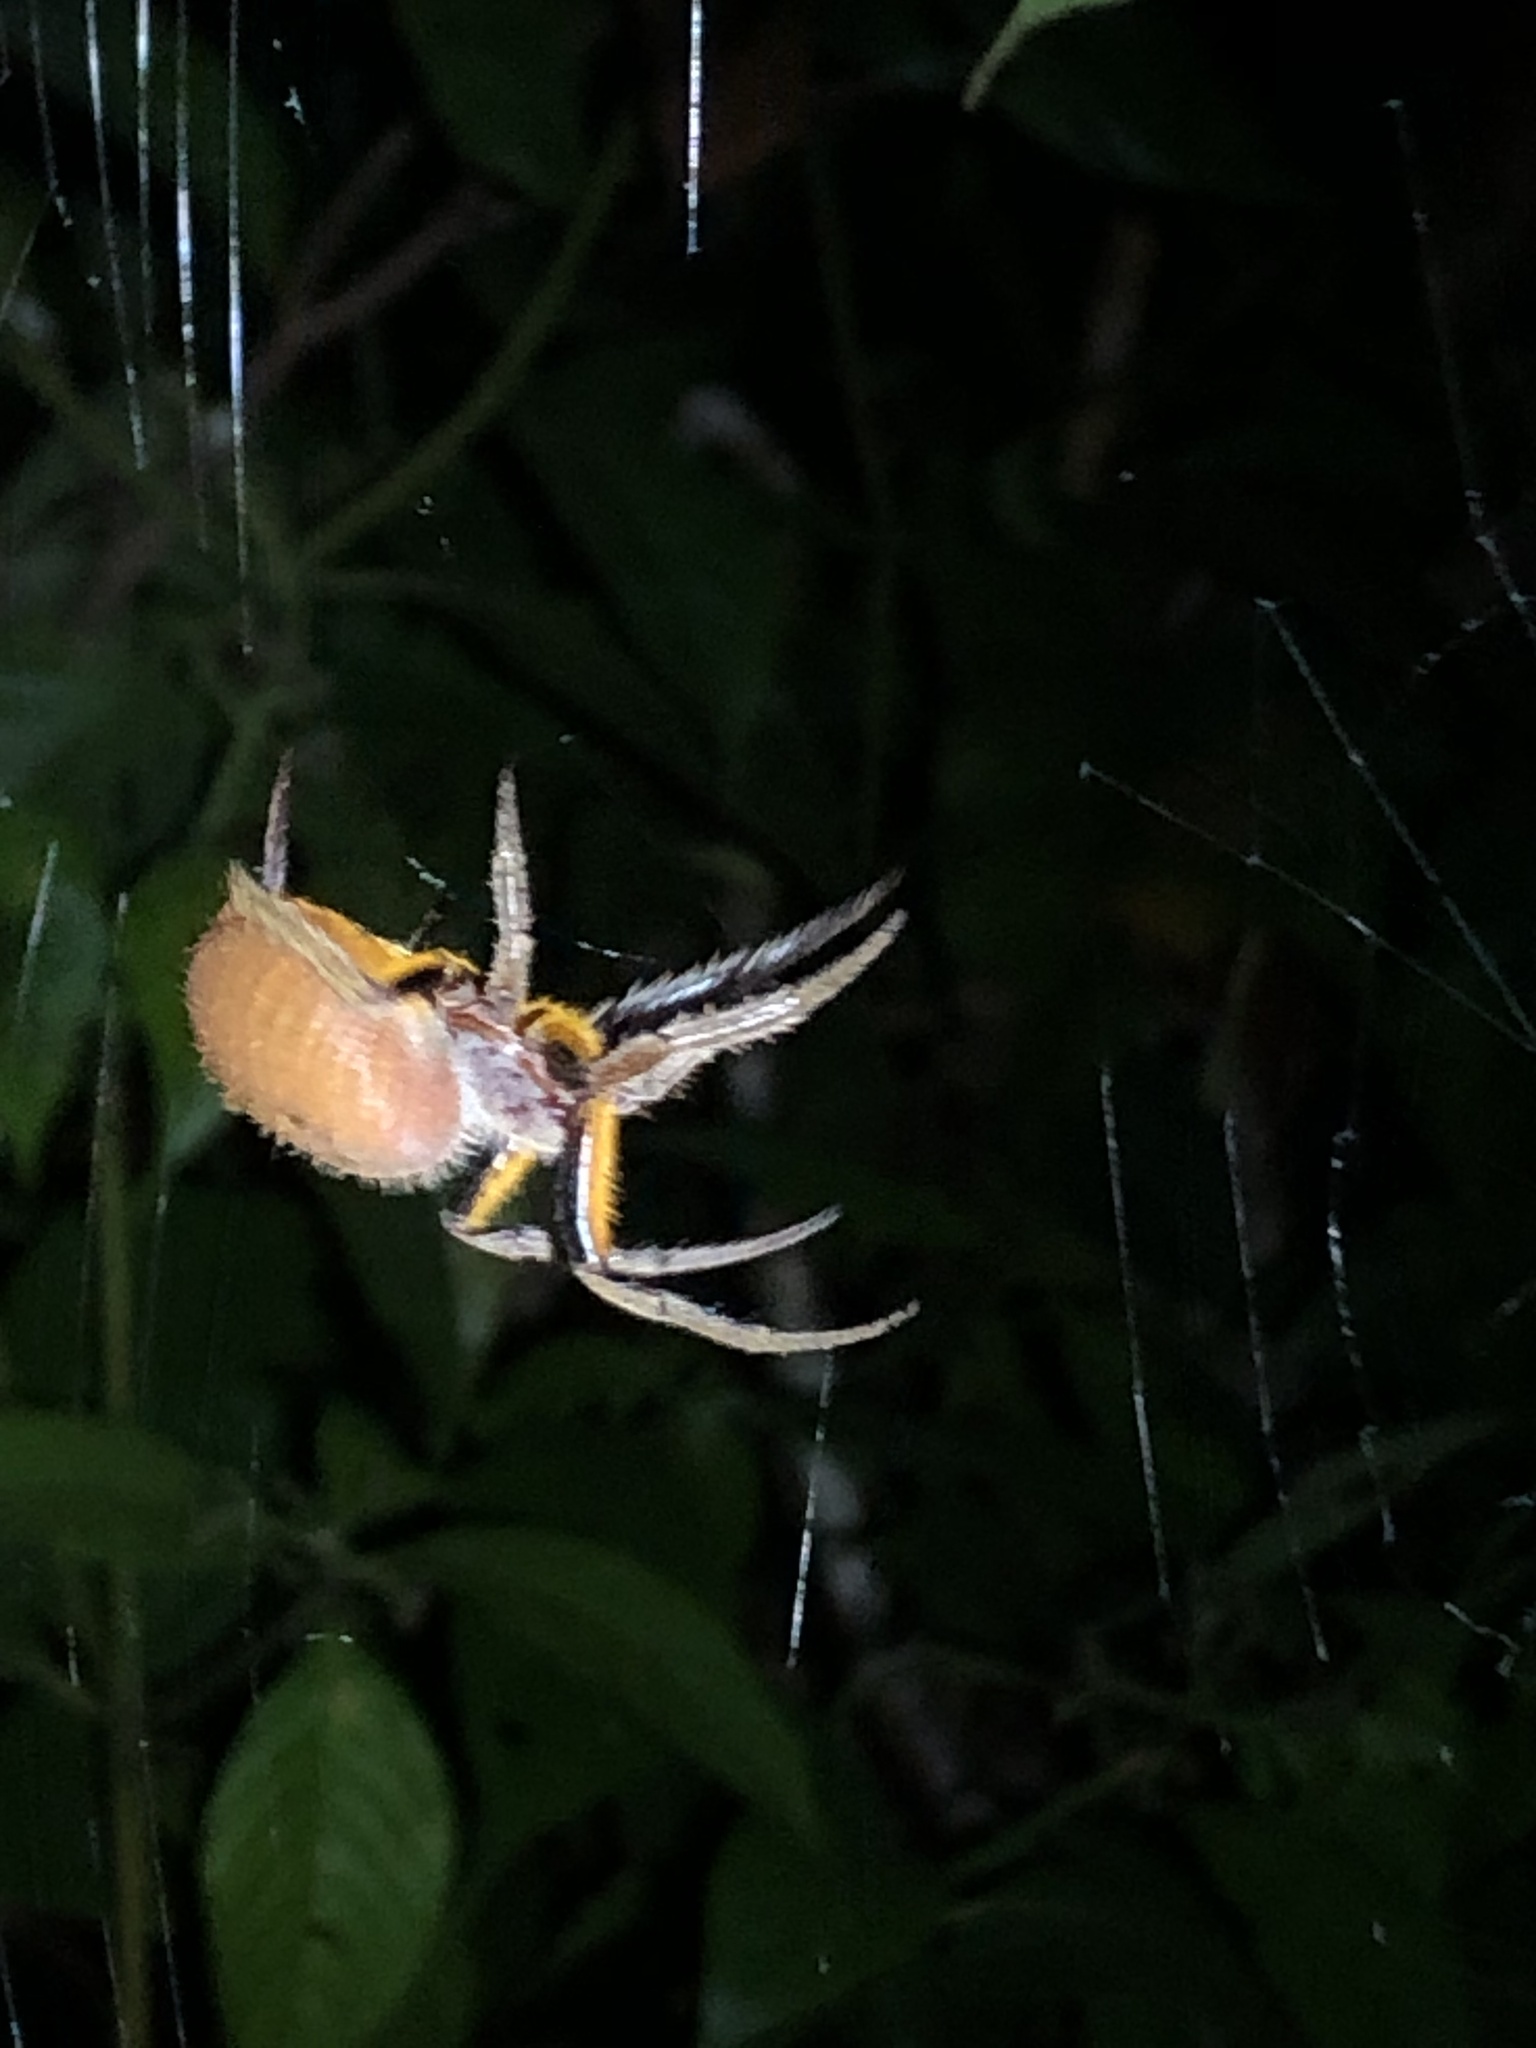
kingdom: Animalia
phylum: Arthropoda
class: Arachnida
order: Araneae
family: Araneidae
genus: Eriophora
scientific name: Eriophora fuliginea
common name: Orb weavers
